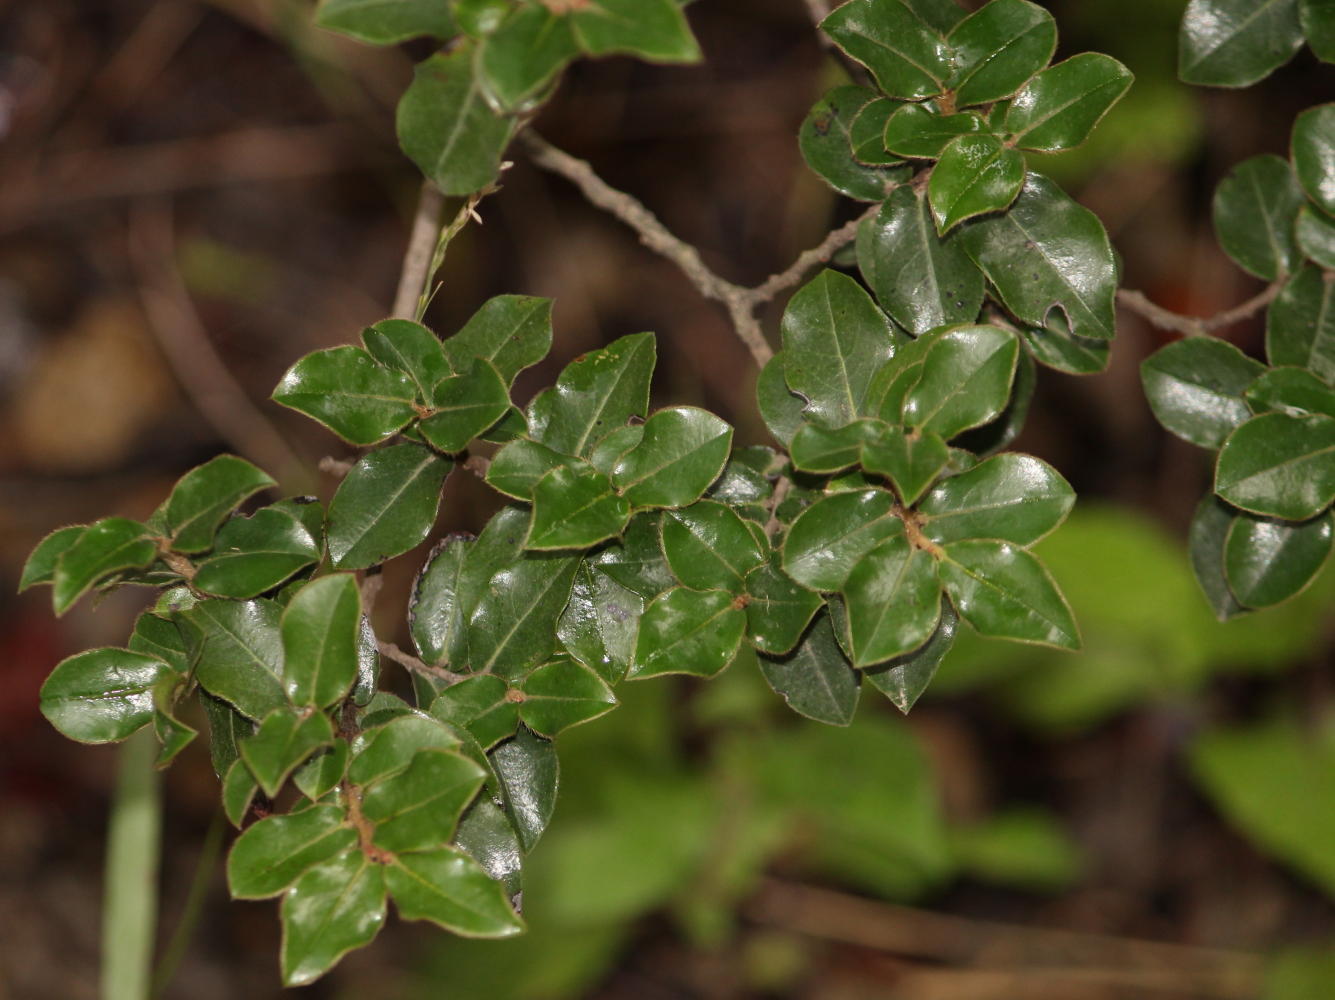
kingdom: Plantae
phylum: Tracheophyta
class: Magnoliopsida
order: Ericales
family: Ebenaceae
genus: Diospyros
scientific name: Diospyros whyteana
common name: Bladder-nut
